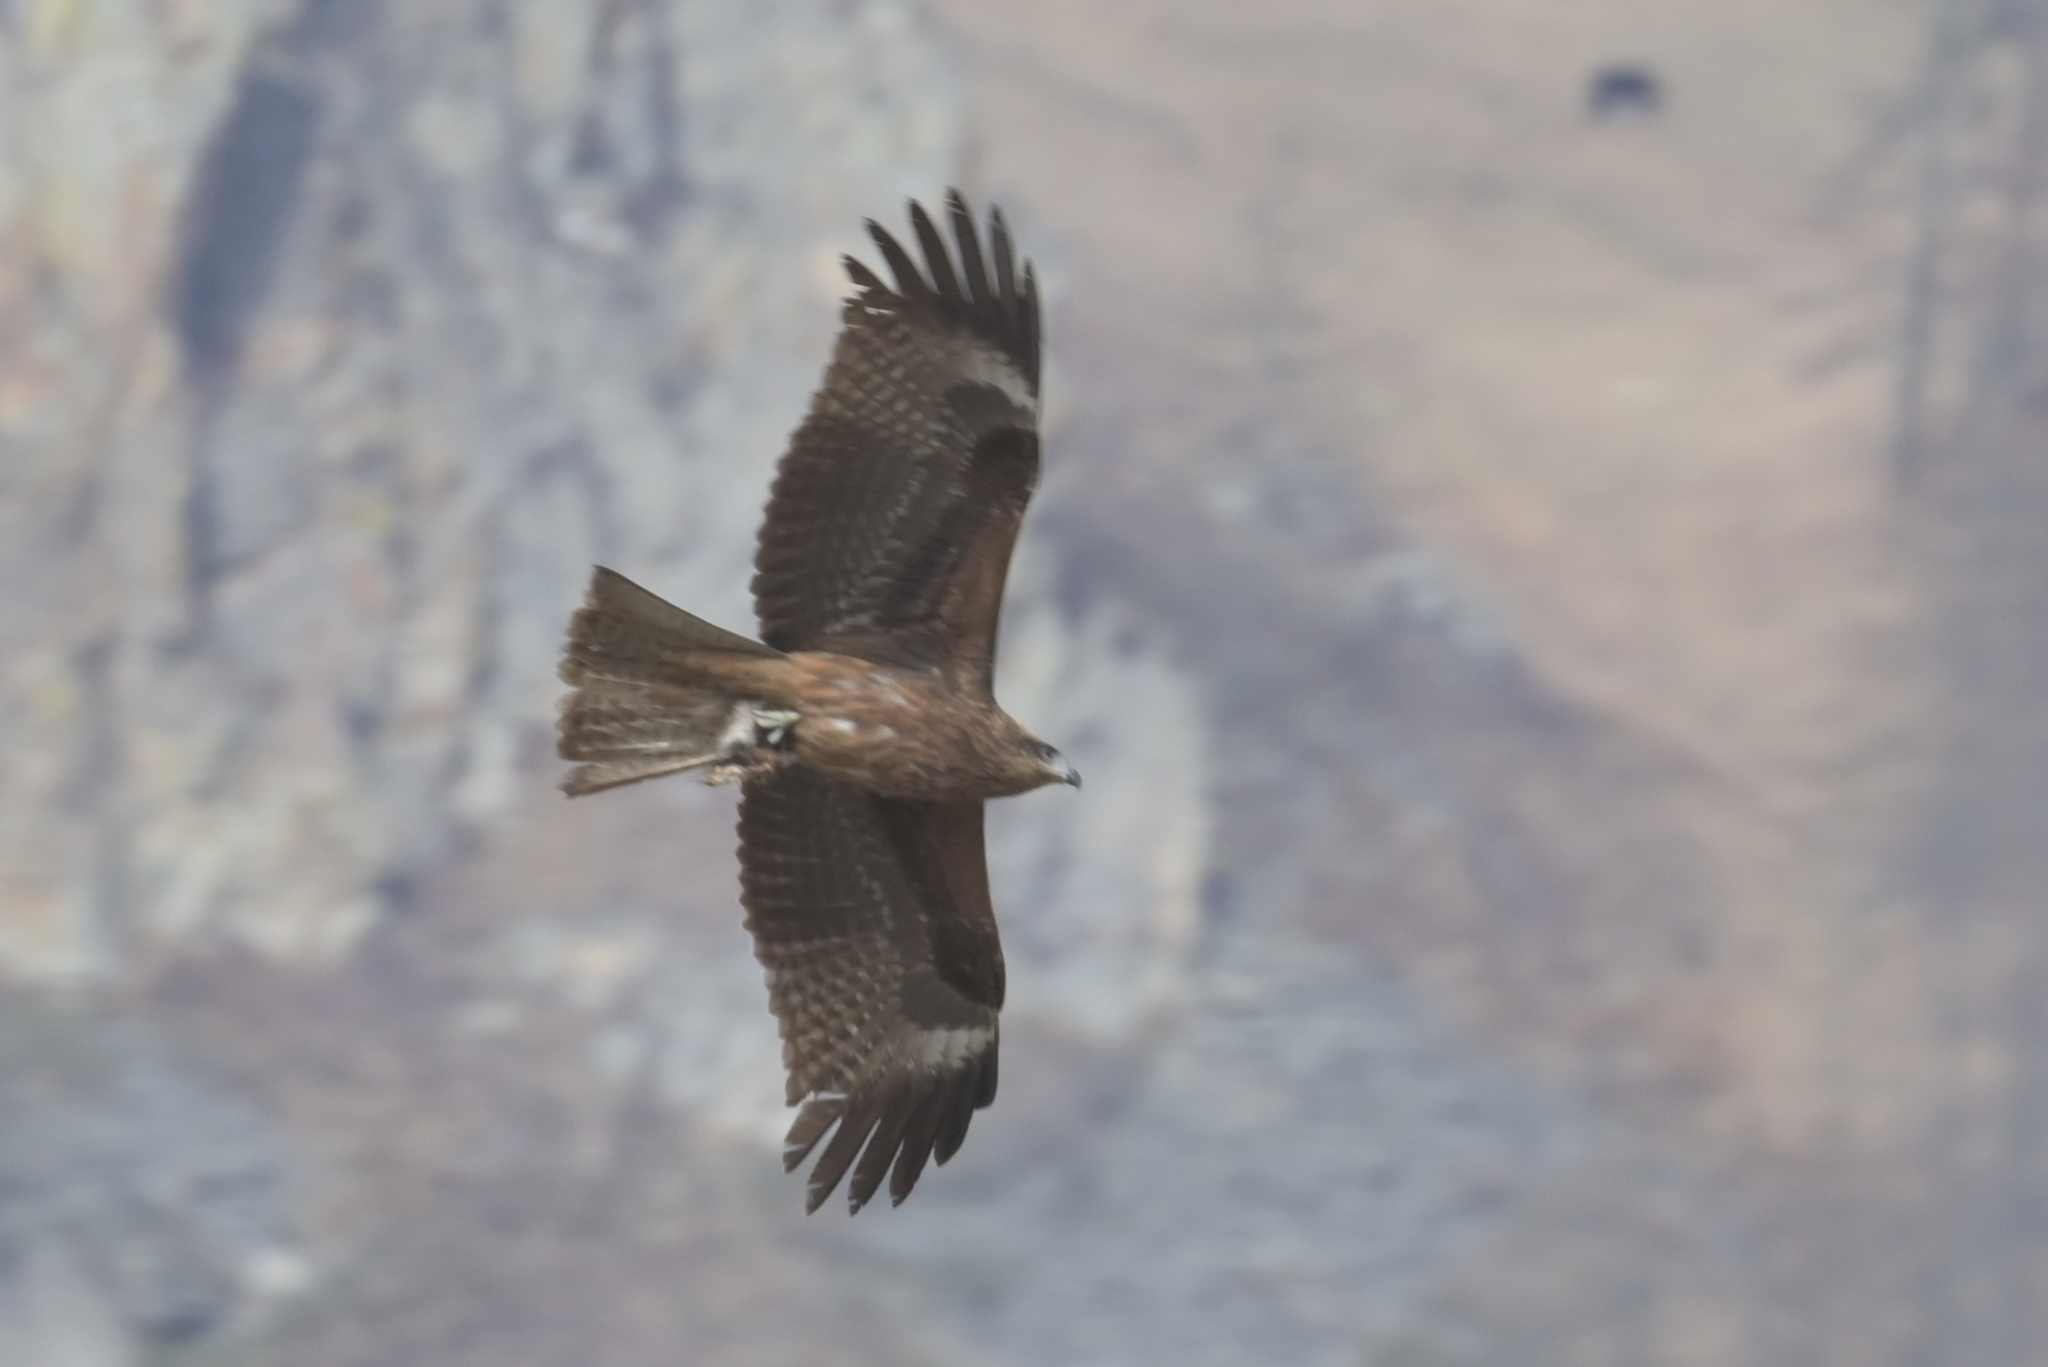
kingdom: Animalia
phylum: Chordata
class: Aves
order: Accipitriformes
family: Accipitridae
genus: Milvus
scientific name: Milvus migrans
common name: Black kite
